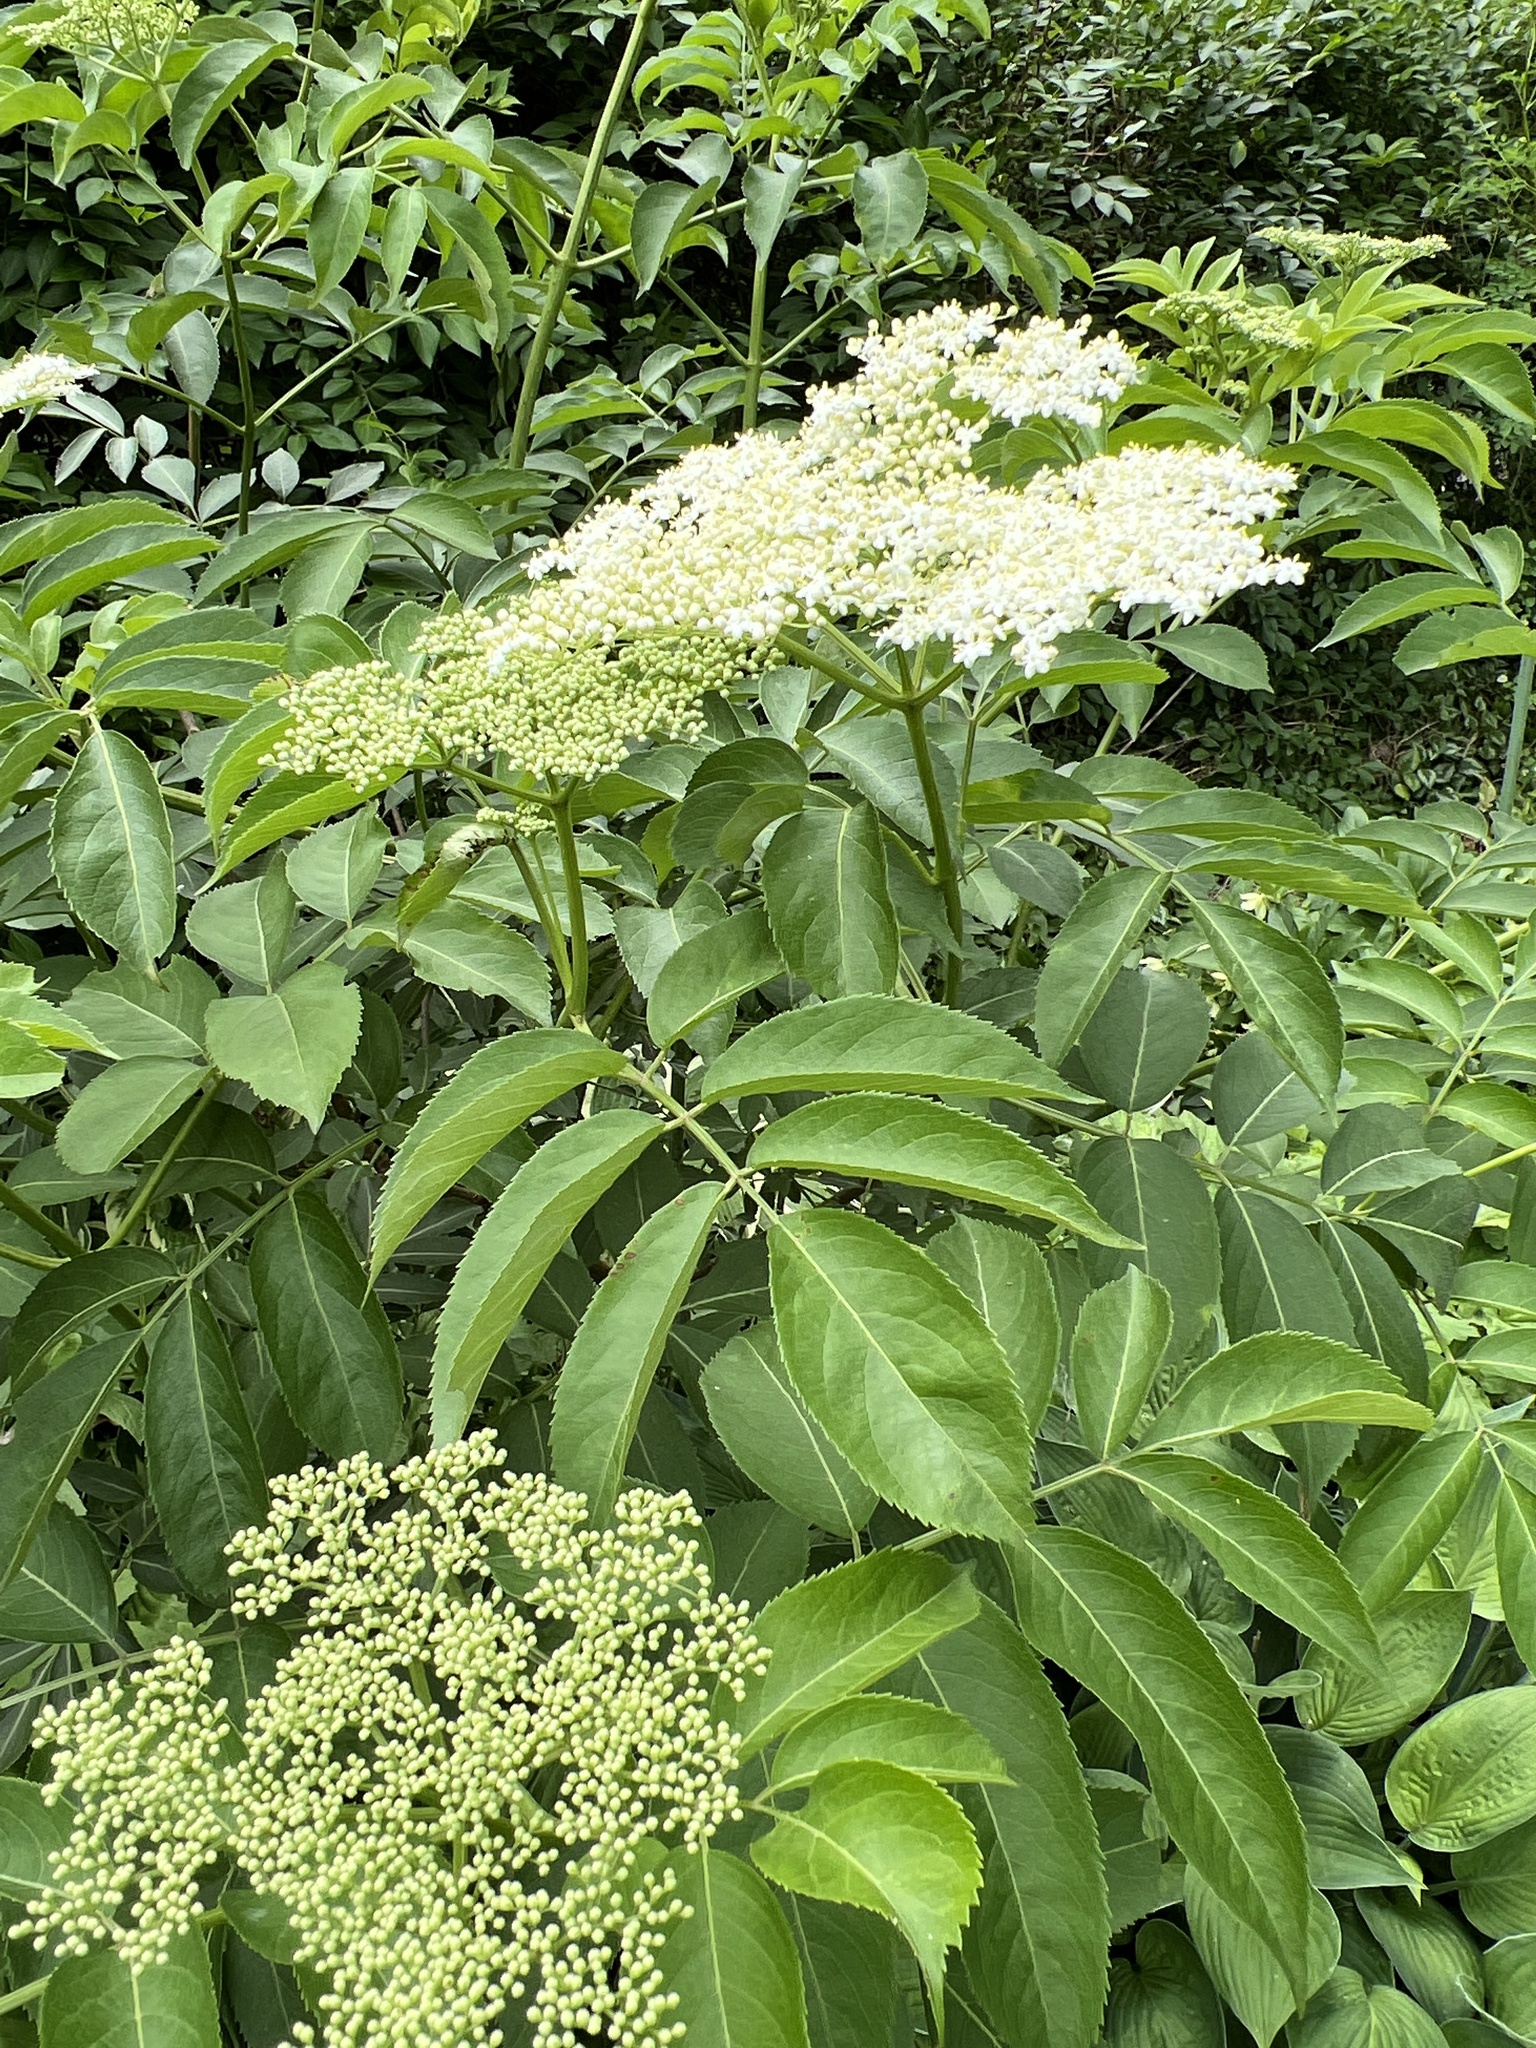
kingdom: Plantae
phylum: Tracheophyta
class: Magnoliopsida
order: Dipsacales
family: Viburnaceae
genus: Sambucus
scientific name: Sambucus canadensis
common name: American elder
